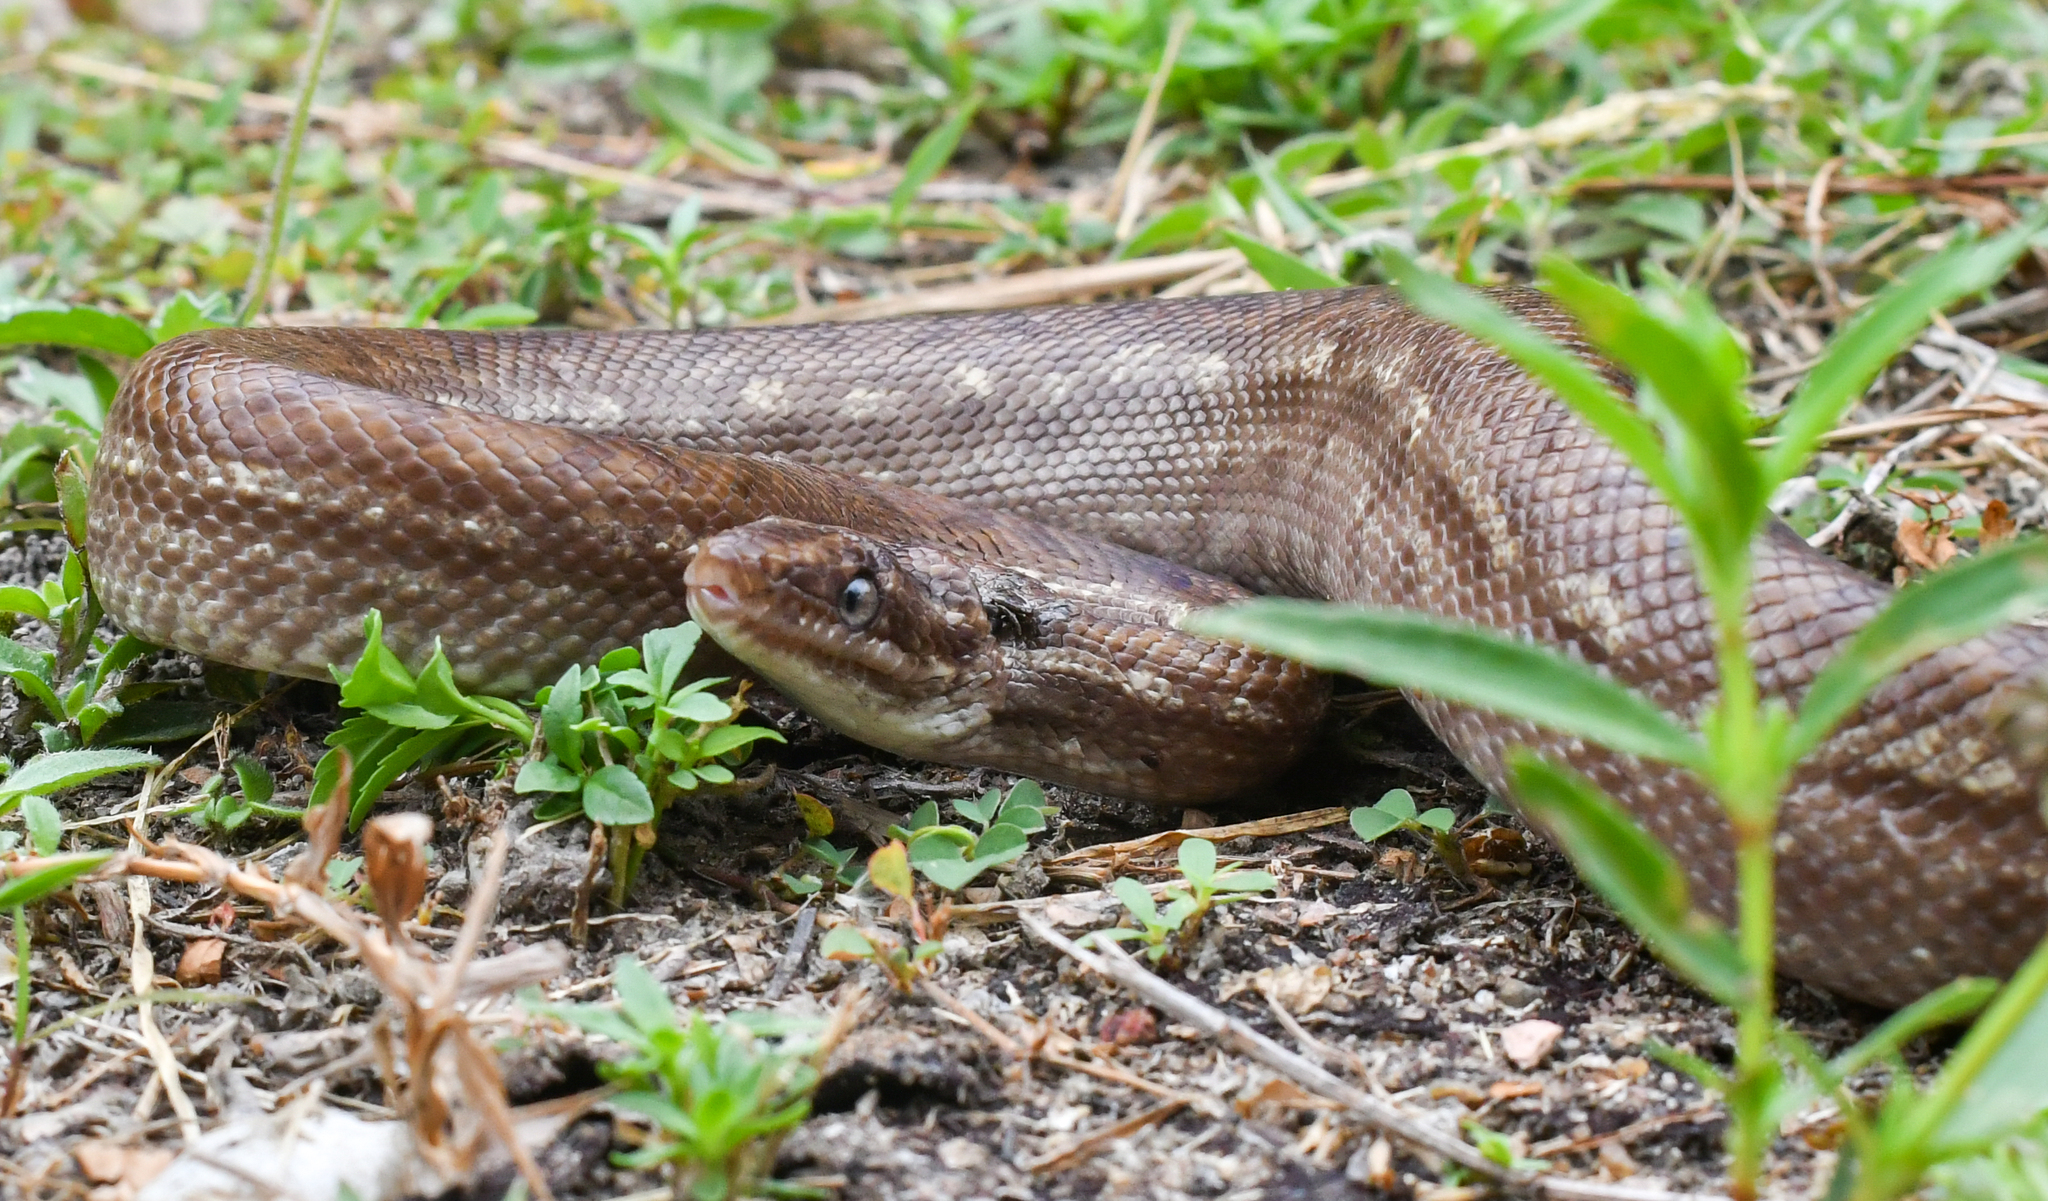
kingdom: Animalia
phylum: Chordata
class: Squamata
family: Boidae
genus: Epicrates
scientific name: Epicrates maurus
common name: Brown rainbow boa
